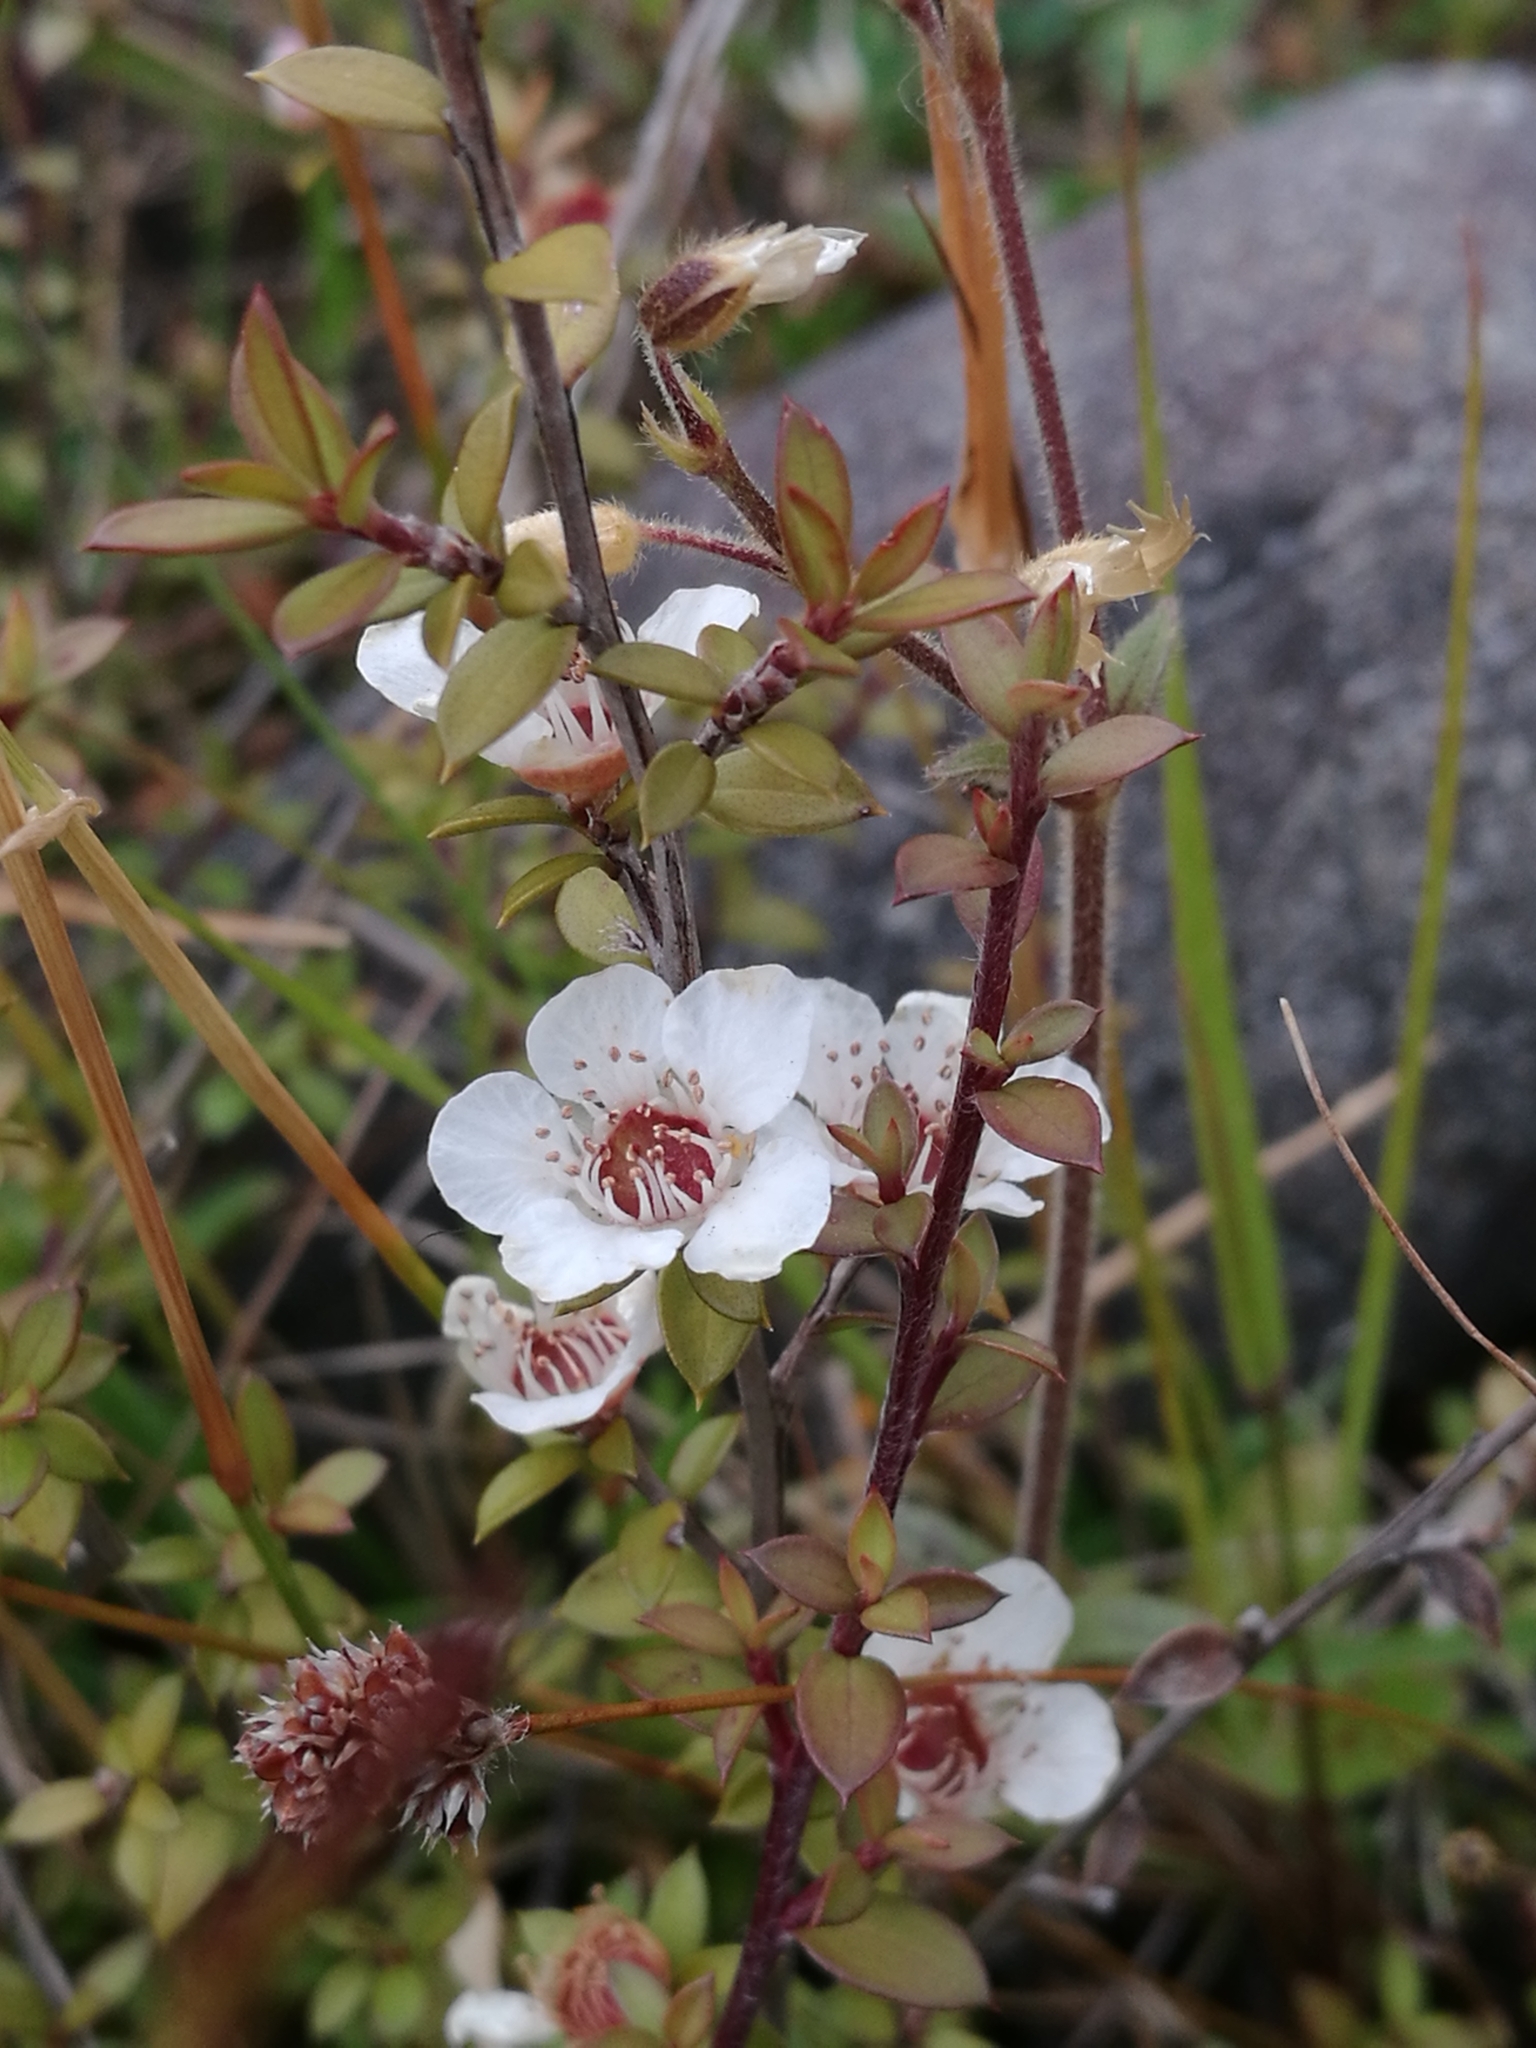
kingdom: Plantae
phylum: Tracheophyta
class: Magnoliopsida
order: Myrtales
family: Myrtaceae
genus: Leptospermum
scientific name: Leptospermum scoparium
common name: Broom tea-tree
